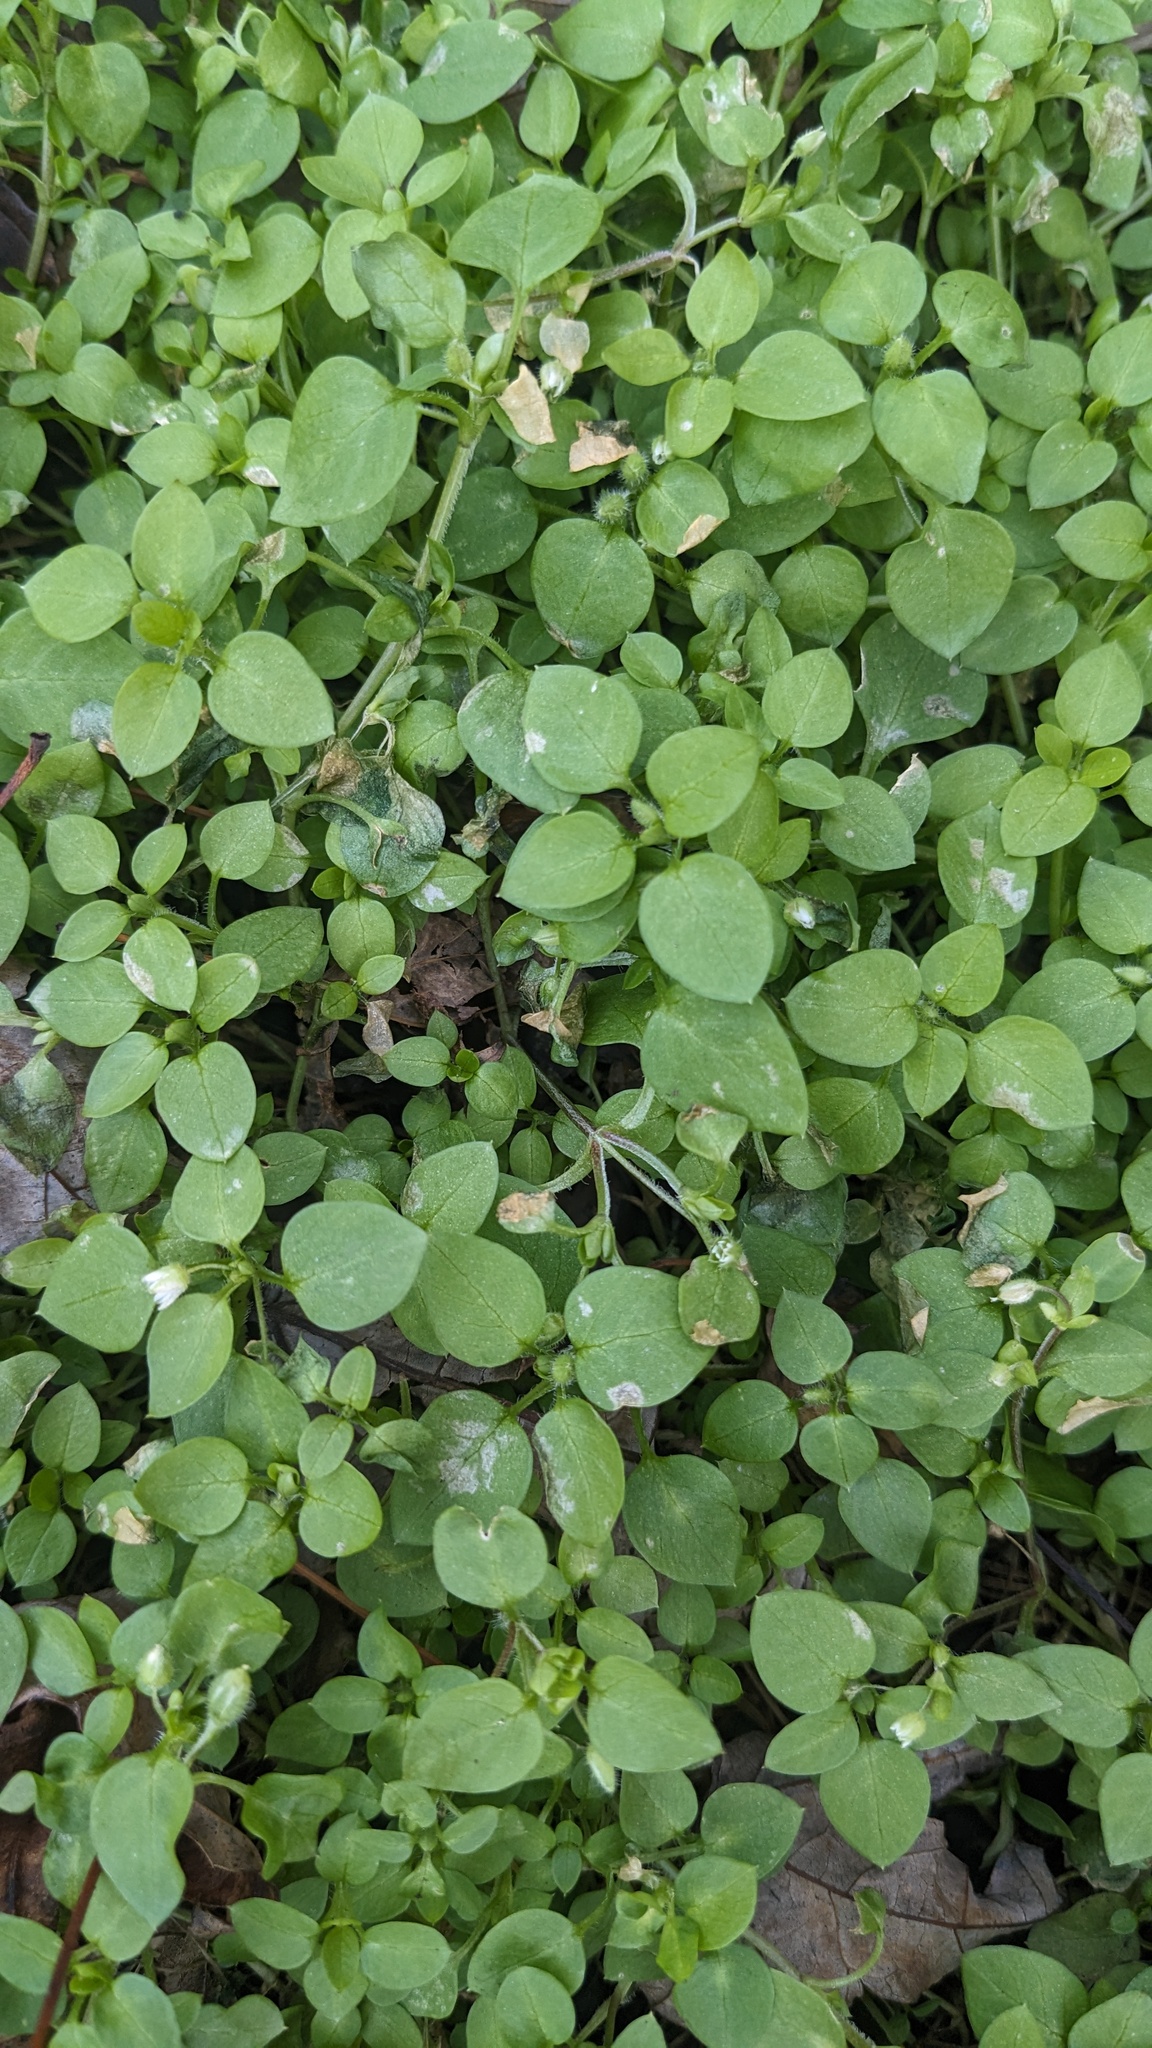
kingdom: Plantae
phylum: Tracheophyta
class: Magnoliopsida
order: Caryophyllales
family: Caryophyllaceae
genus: Stellaria
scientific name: Stellaria media
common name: Common chickweed
